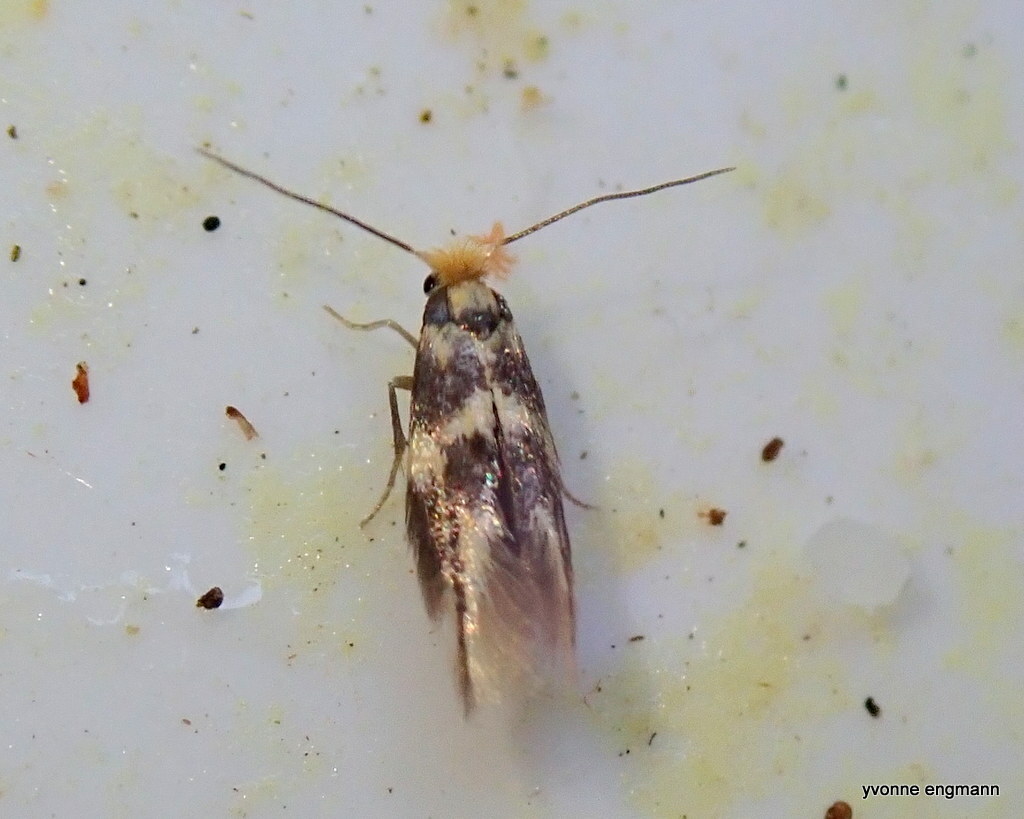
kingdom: Animalia
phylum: Arthropoda
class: Insecta
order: Lepidoptera
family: Bucculatricidae
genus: Bucculatrix
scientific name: Bucculatrix thoracella
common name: Lime bent-wing
